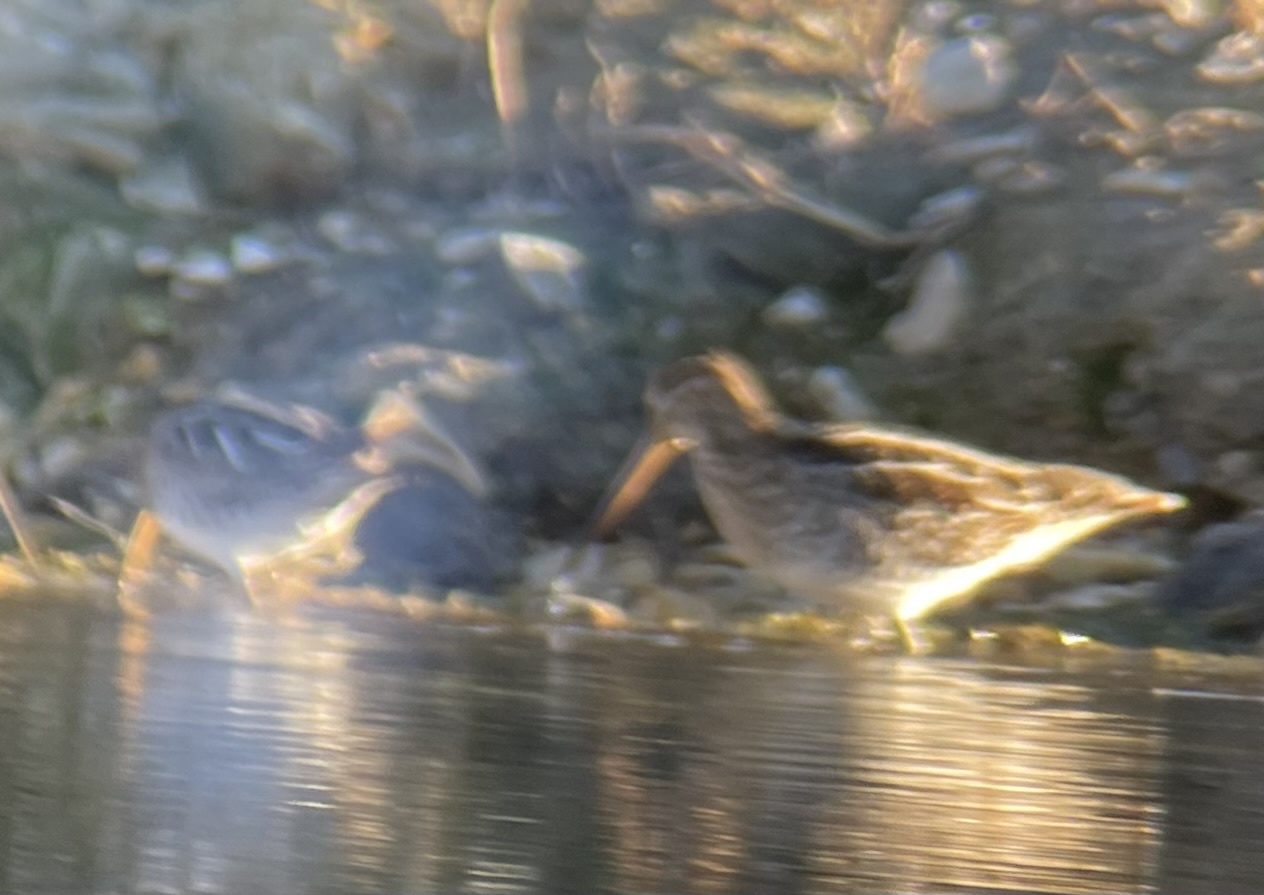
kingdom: Animalia
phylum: Chordata
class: Aves
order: Charadriiformes
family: Scolopacidae
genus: Gallinago
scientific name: Gallinago delicata
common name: Wilson's snipe
